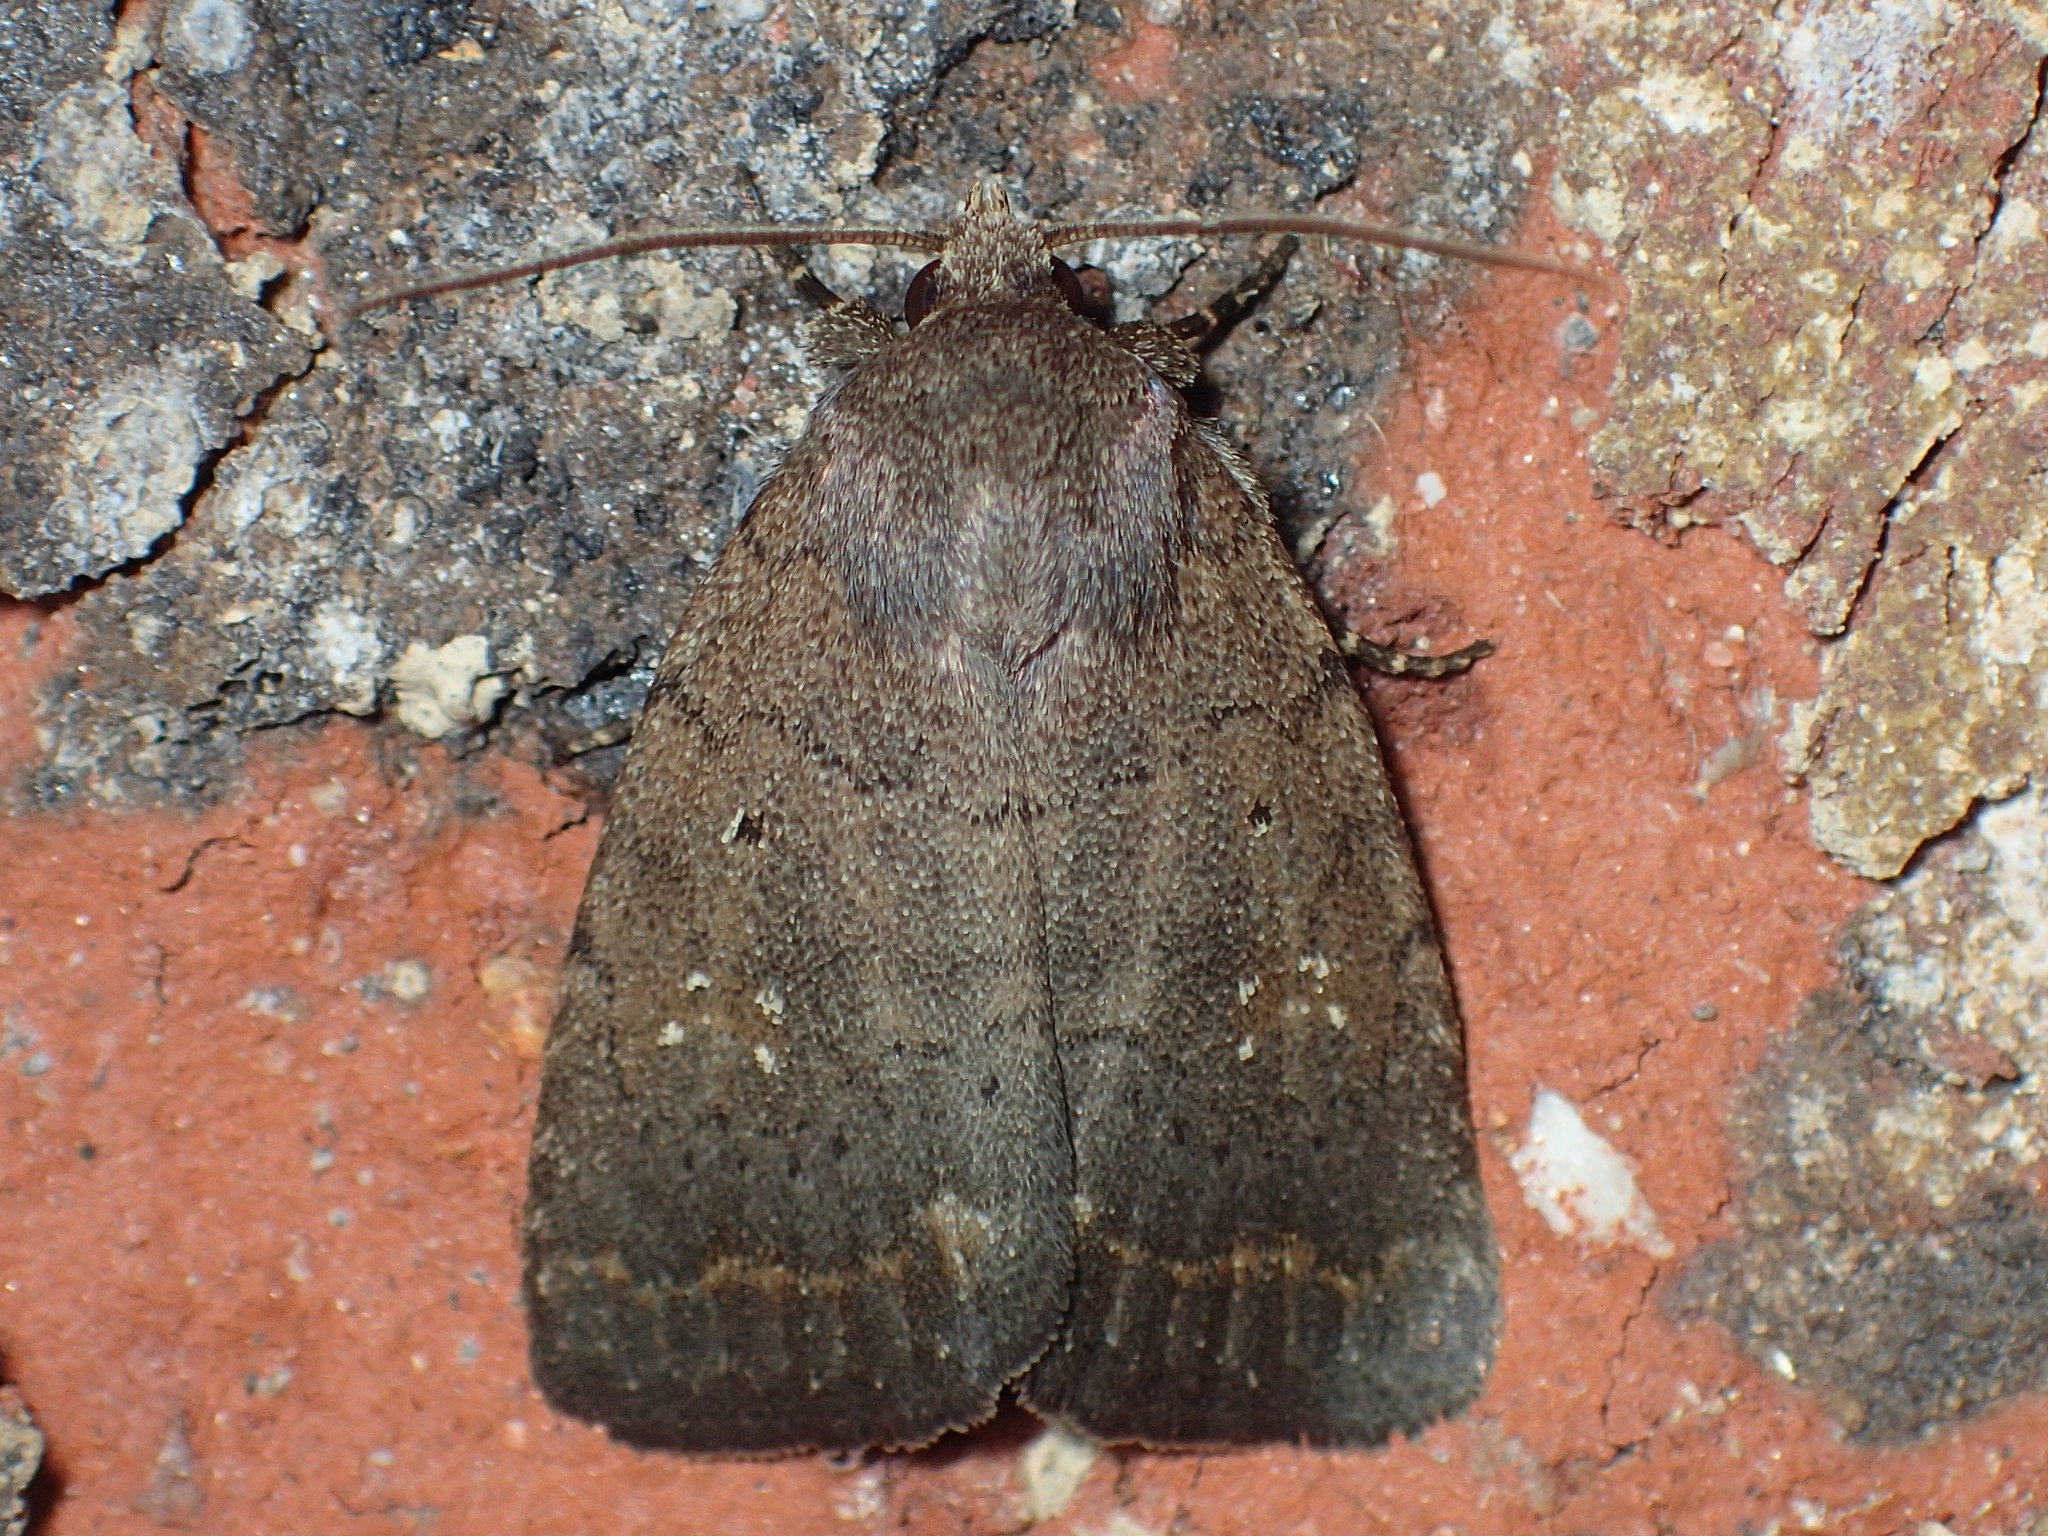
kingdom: Animalia
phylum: Arthropoda
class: Insecta
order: Lepidoptera
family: Noctuidae
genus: Athetis
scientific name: Athetis tarda
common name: Slowpoke moth
